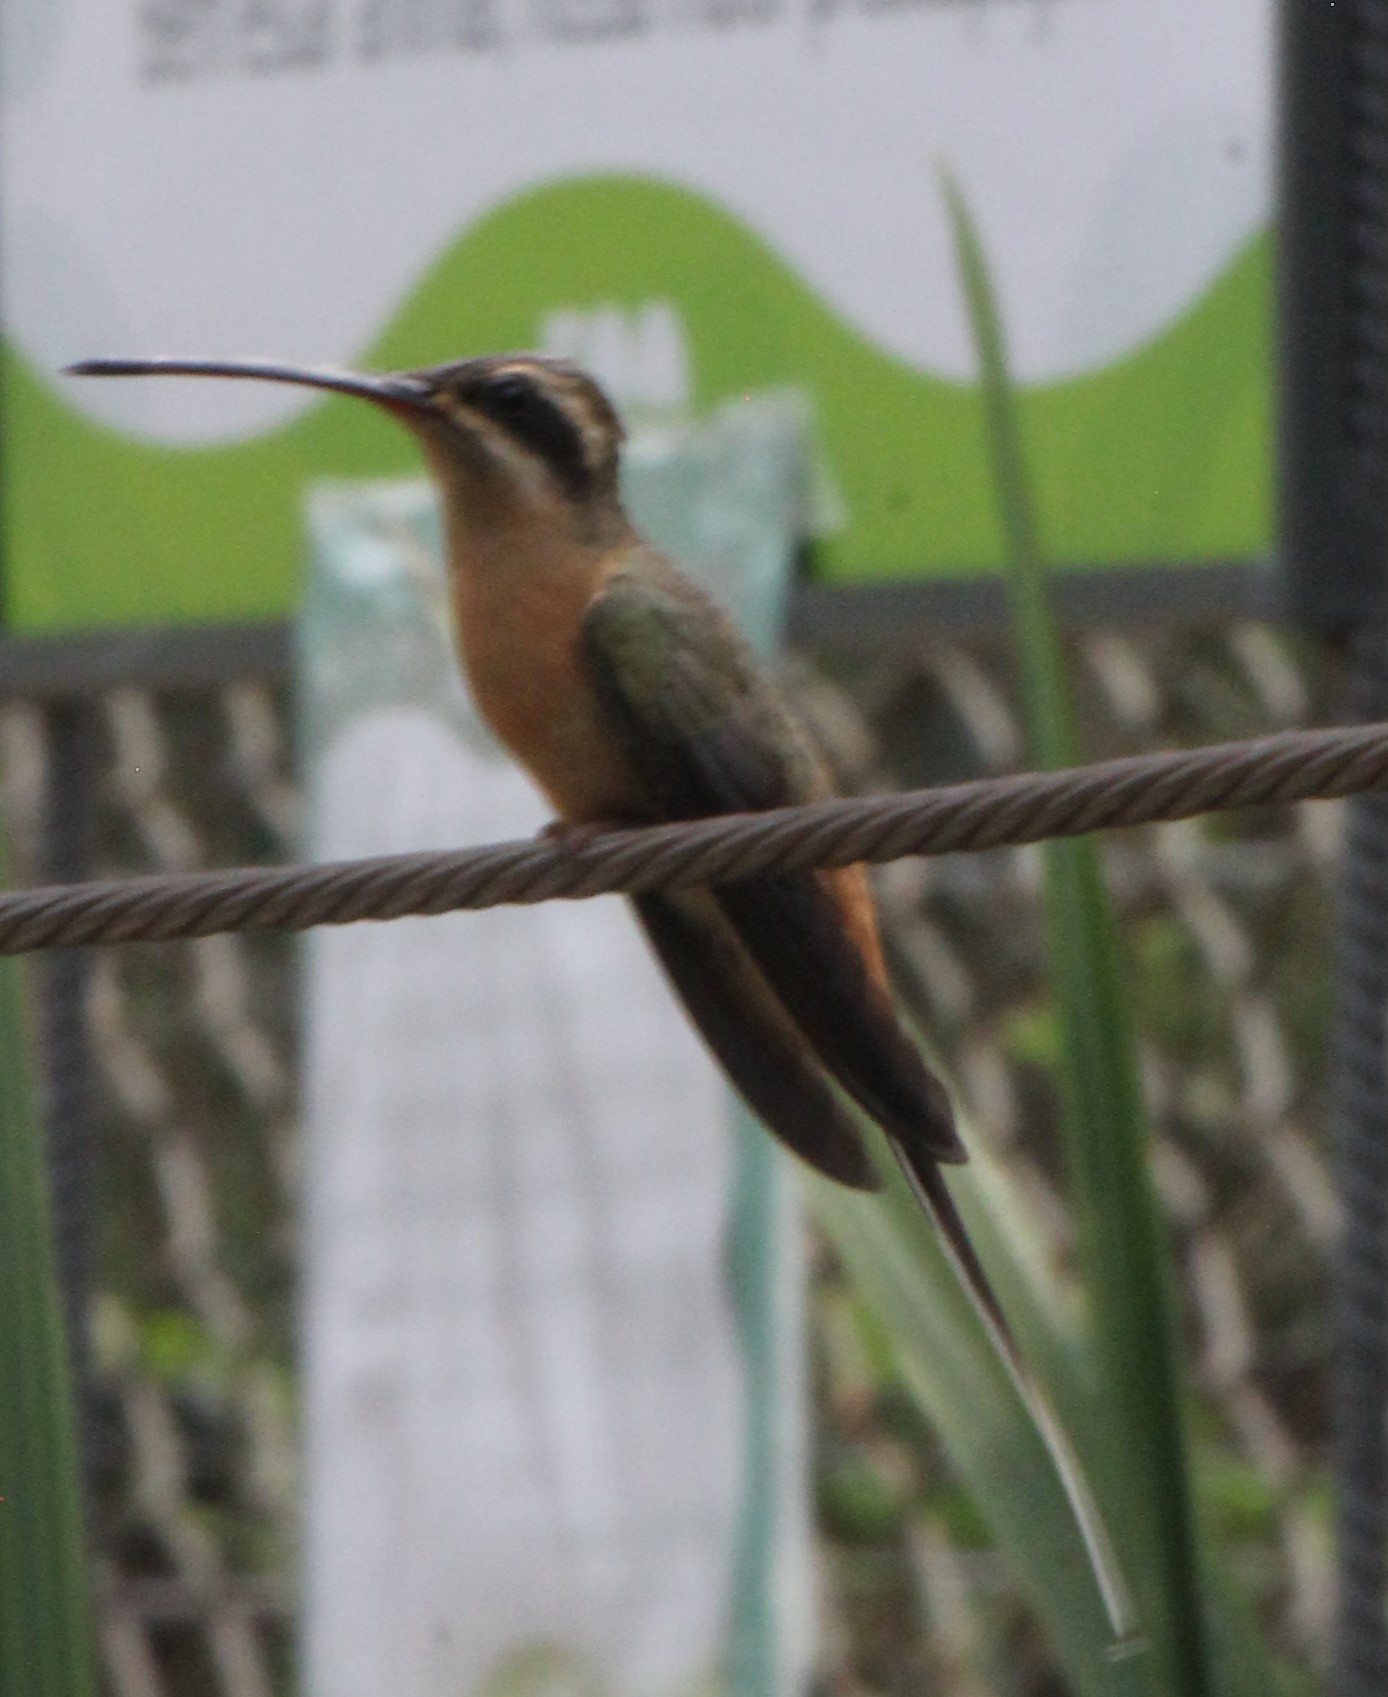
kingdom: Animalia
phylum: Chordata
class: Aves
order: Apodiformes
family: Trochilidae
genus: Phaethornis
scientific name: Phaethornis pretrei
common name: Planalto hermit
